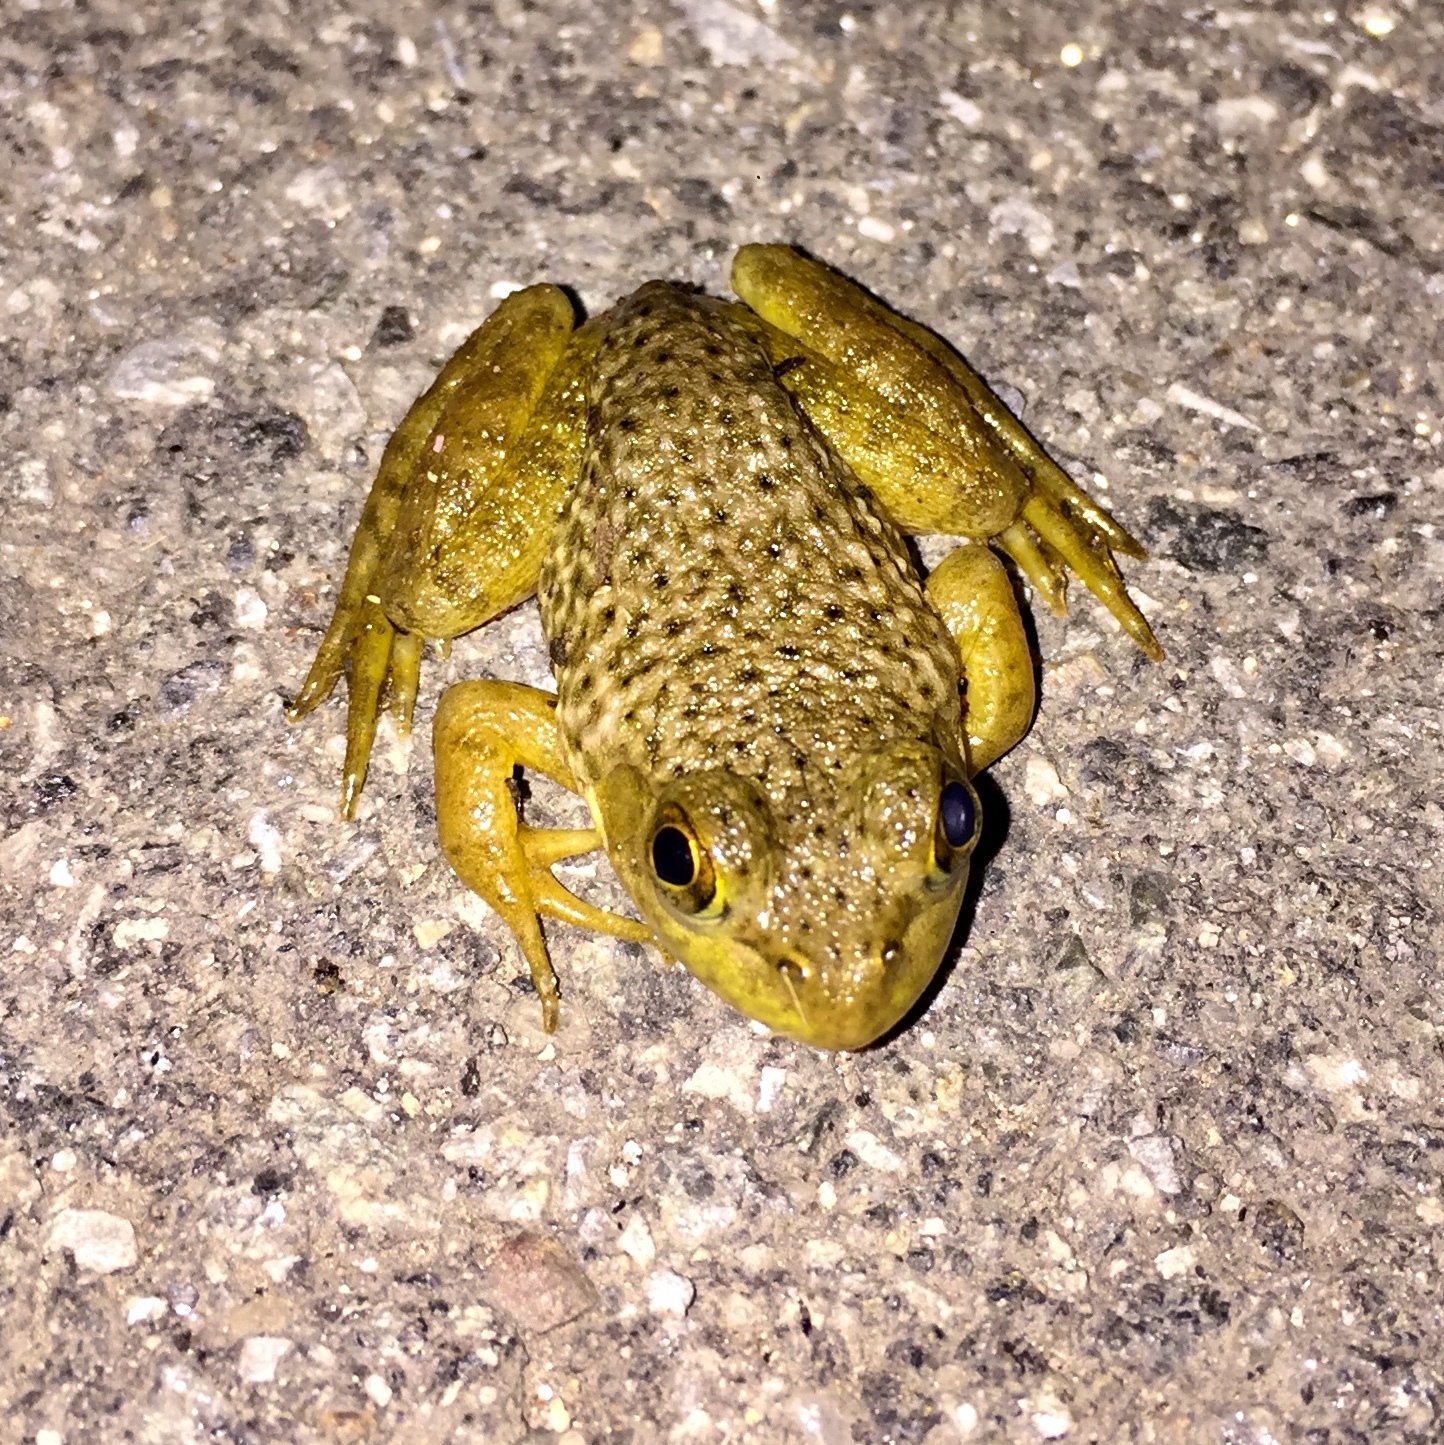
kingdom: Animalia
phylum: Chordata
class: Amphibia
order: Anura
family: Ranidae
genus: Lithobates
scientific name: Lithobates catesbeianus
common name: American bullfrog
